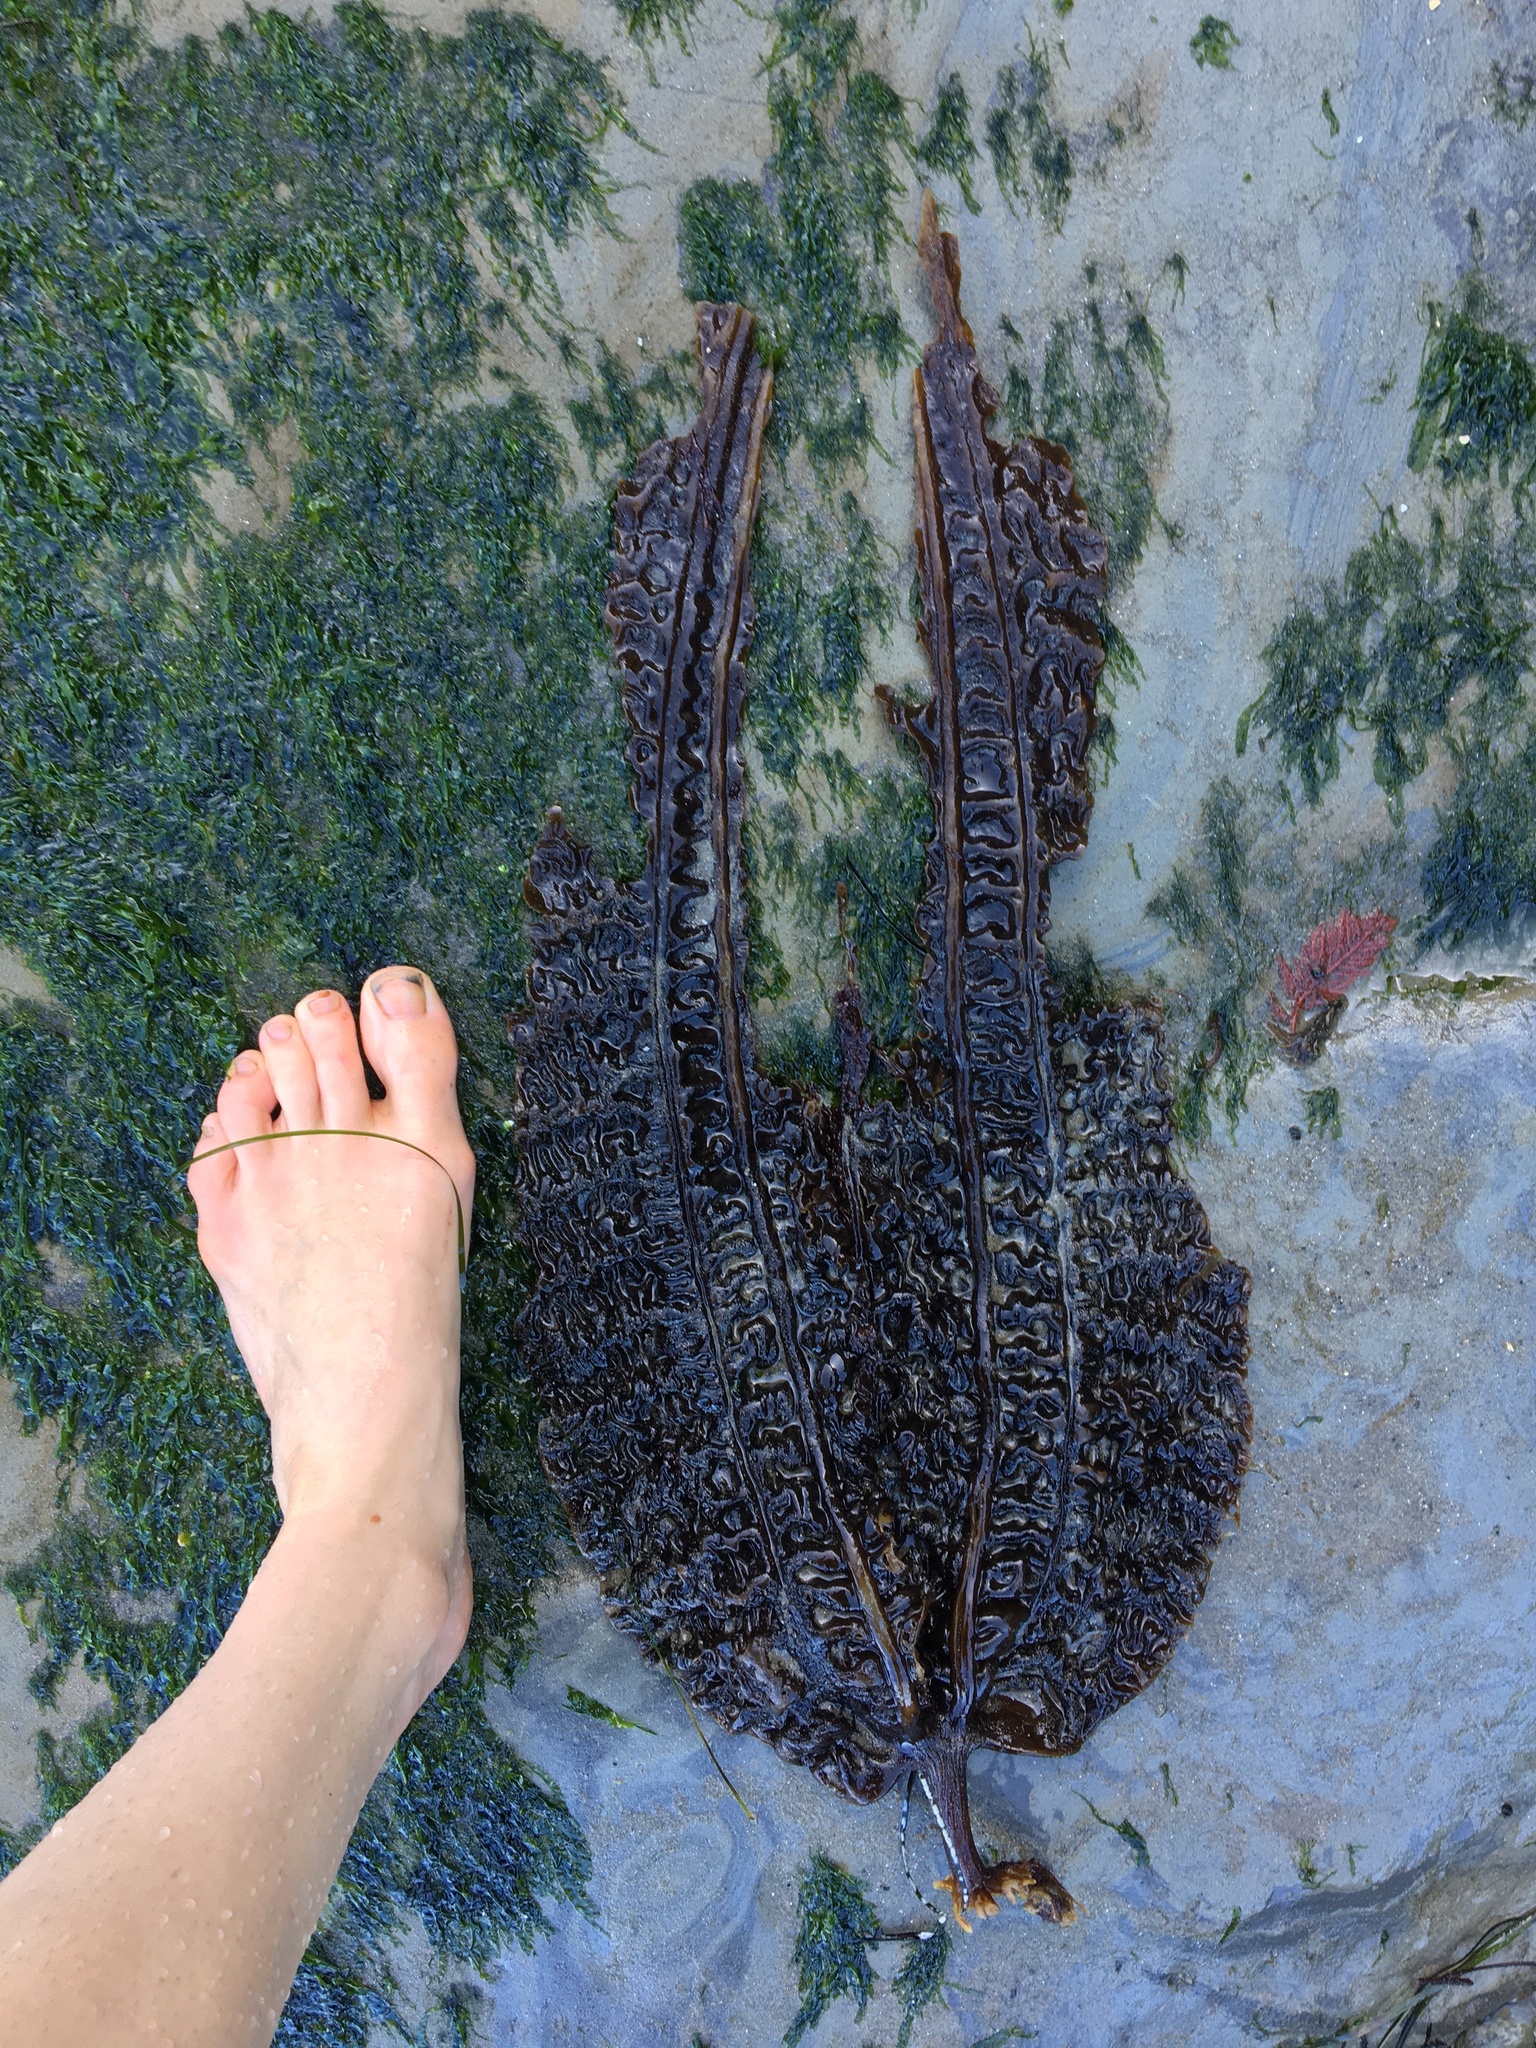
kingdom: Chromista
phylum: Ochrophyta
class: Phaeophyceae
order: Laminariales
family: Costariaceae
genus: Costaria
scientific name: Costaria costata
